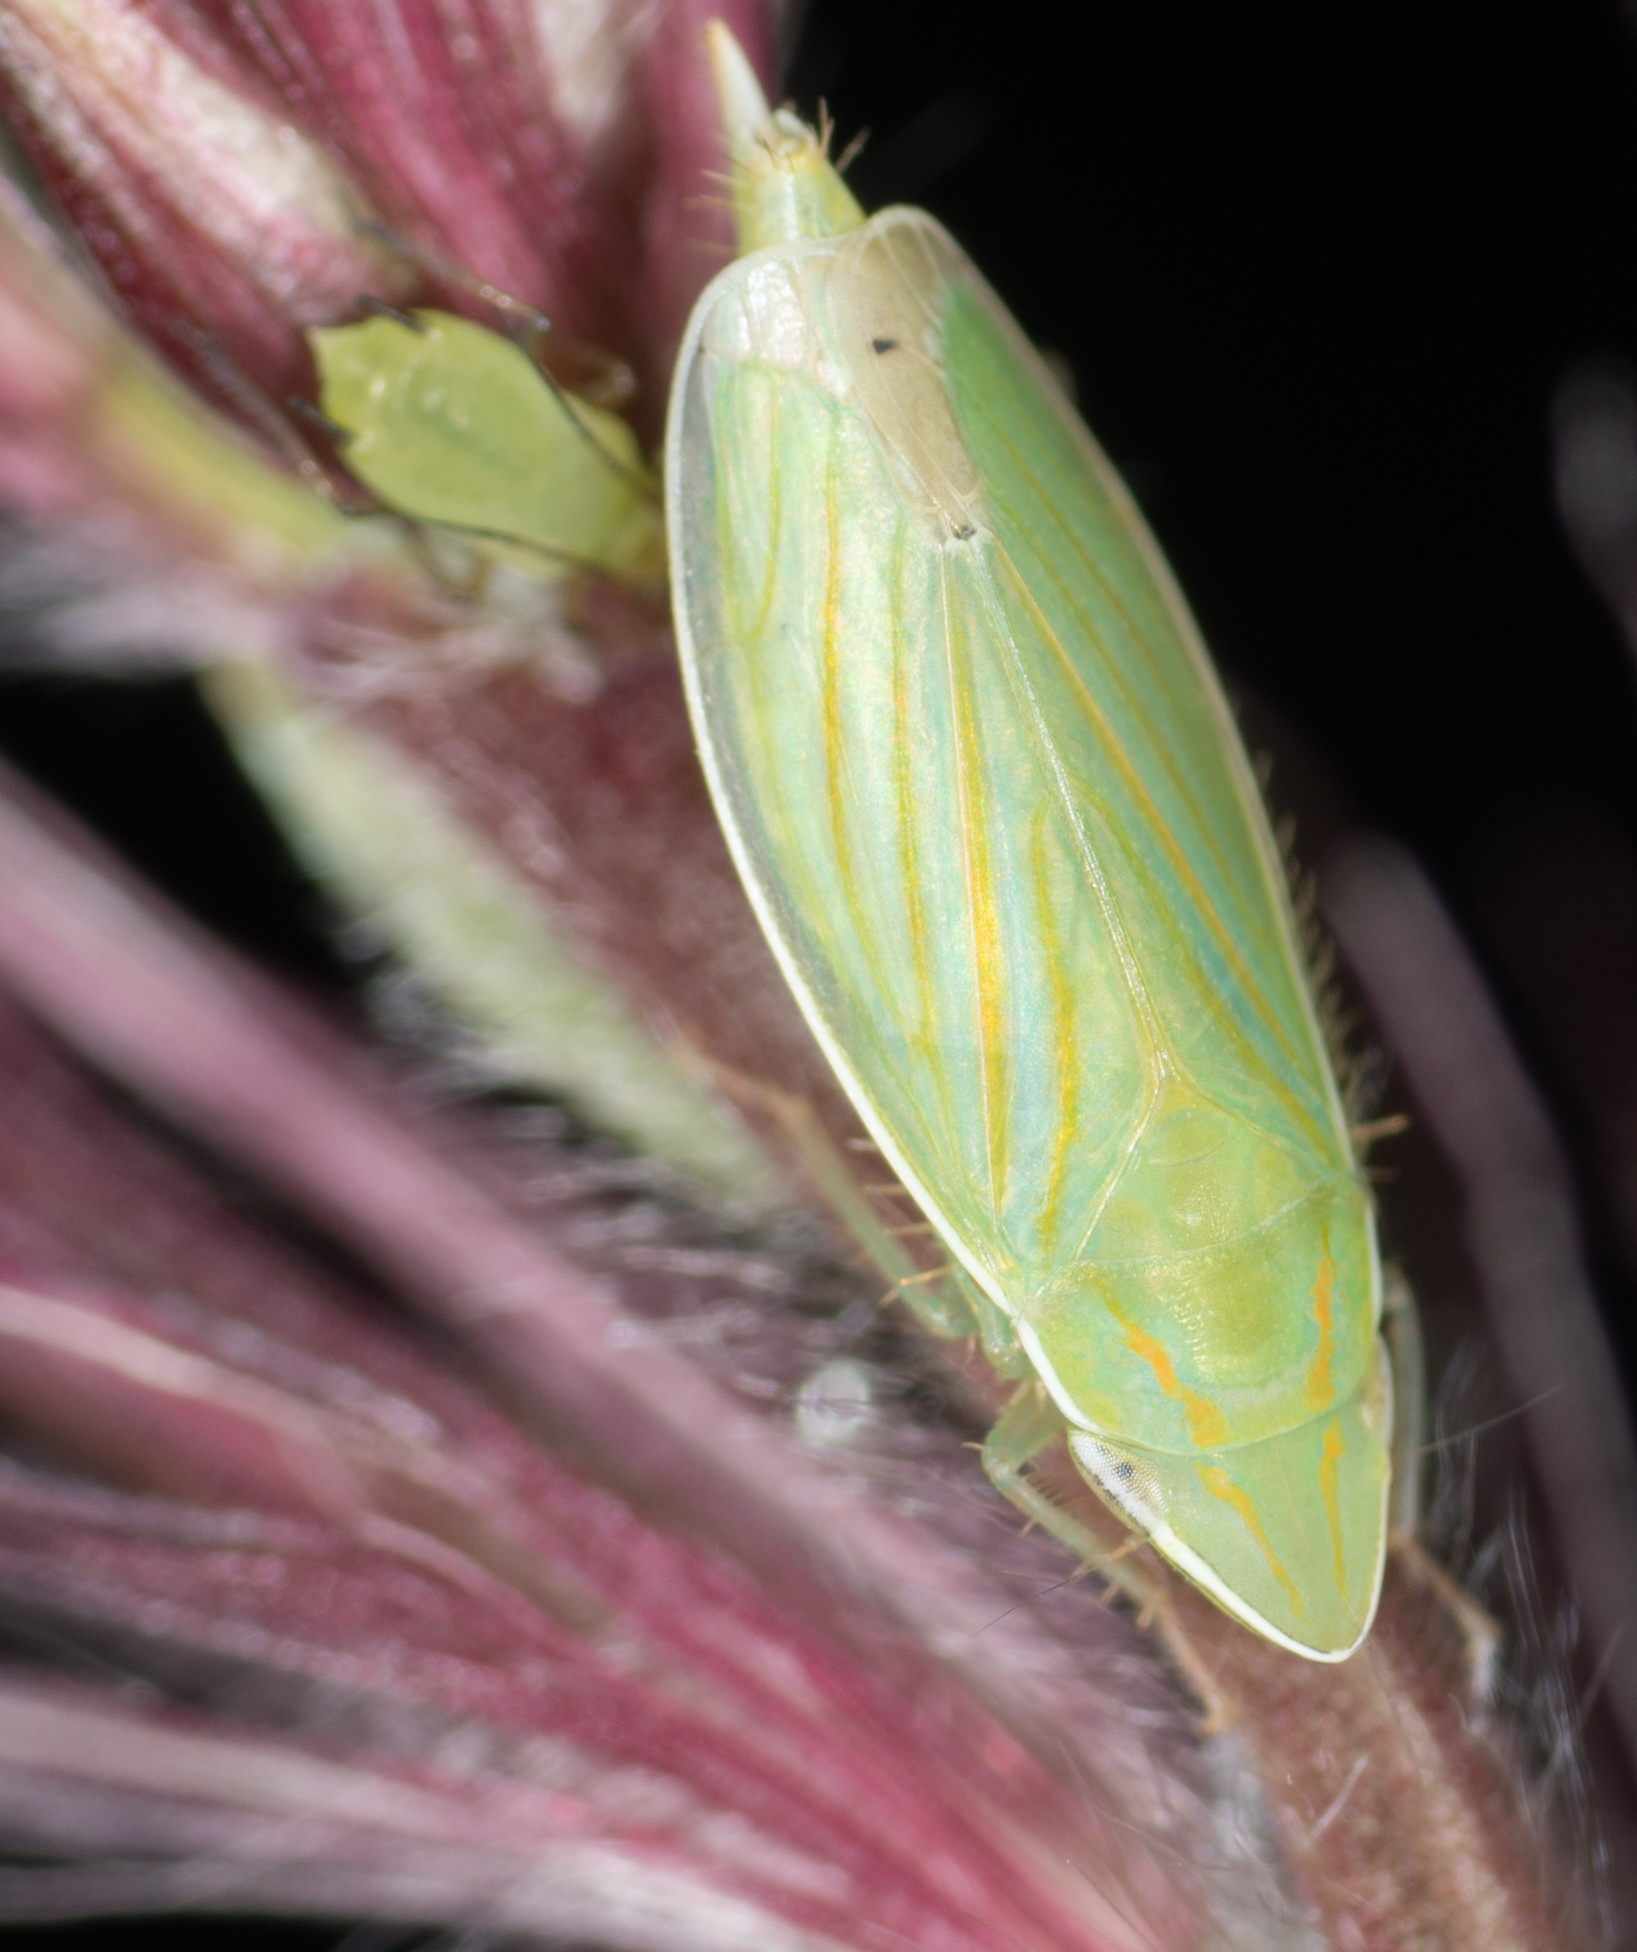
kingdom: Animalia
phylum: Arthropoda
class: Insecta
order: Hemiptera
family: Cicadellidae
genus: Spangbergiella
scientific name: Spangbergiella mexicana
